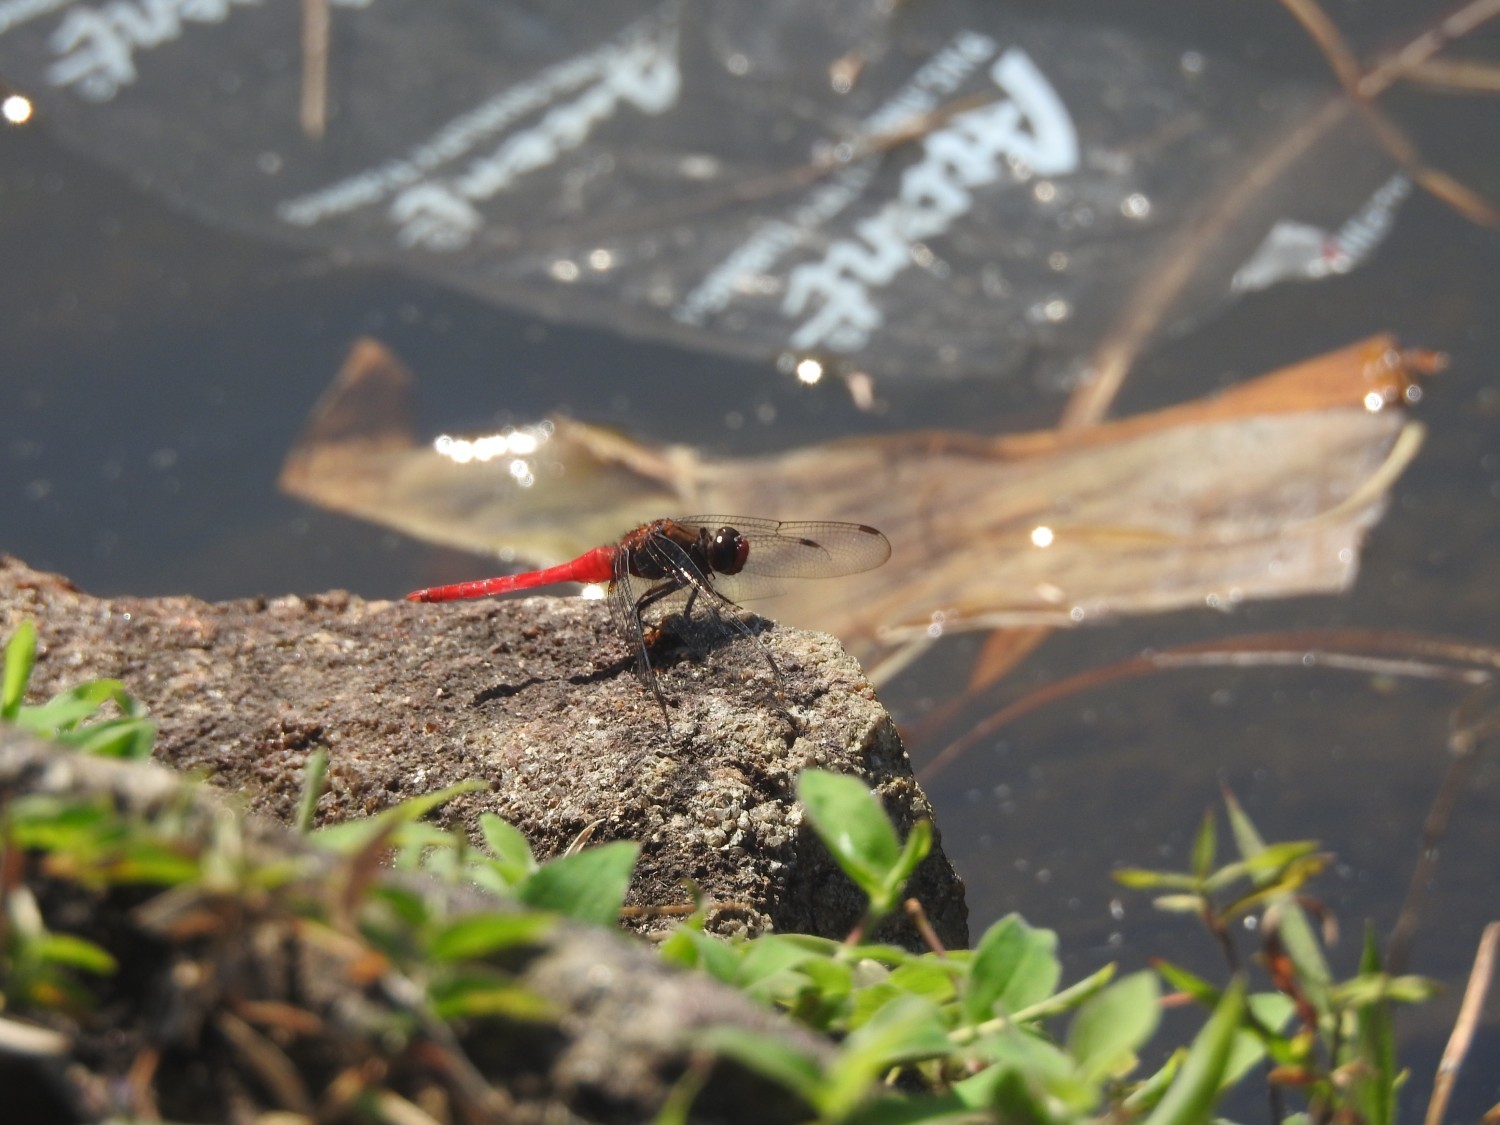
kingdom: Animalia
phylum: Arthropoda
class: Insecta
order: Odonata
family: Libellulidae
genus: Orthetrum
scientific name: Orthetrum chrysis
